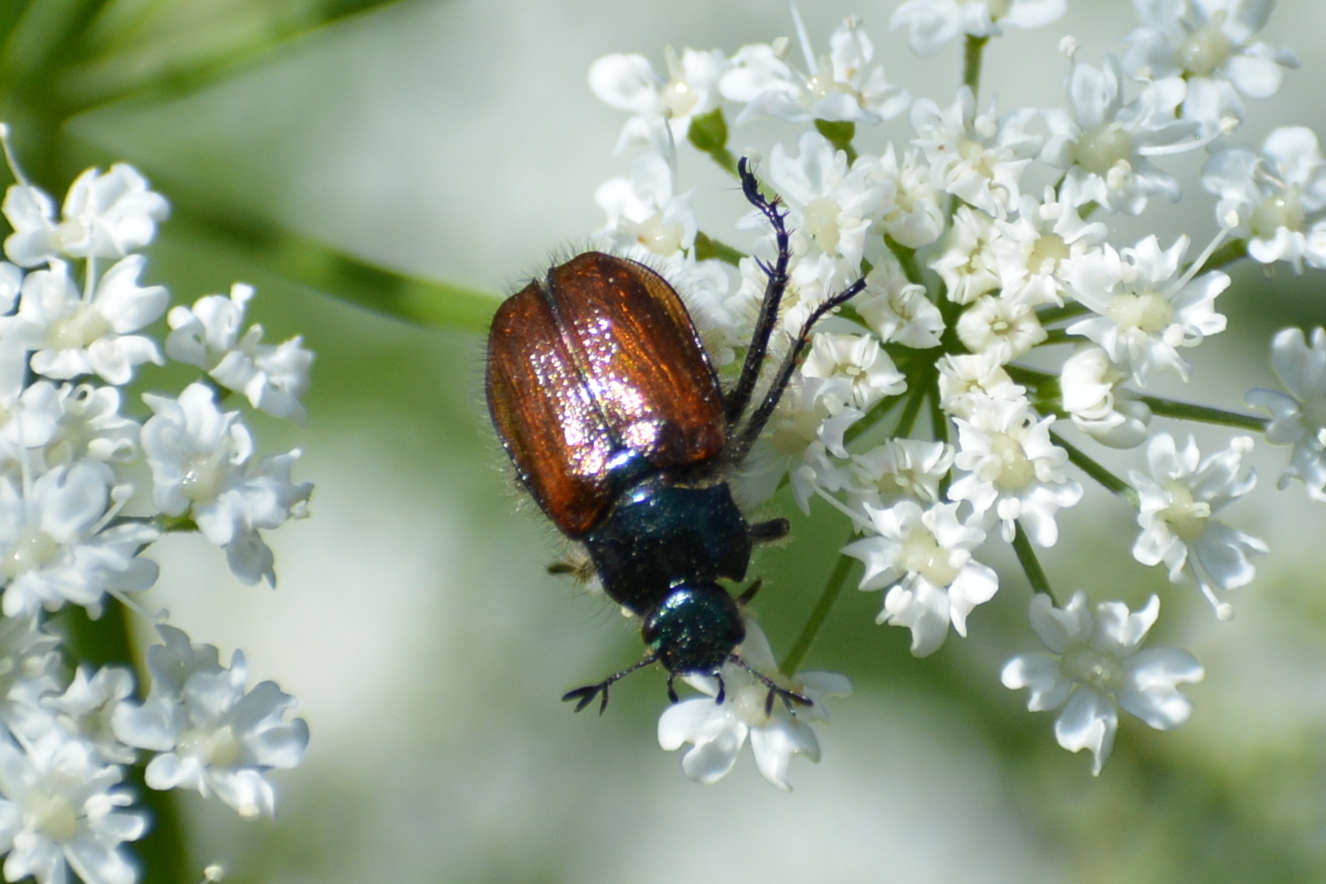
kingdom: Animalia
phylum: Arthropoda
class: Insecta
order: Coleoptera
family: Scarabaeidae
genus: Phyllopertha
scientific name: Phyllopertha horticola
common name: Garden chafer
